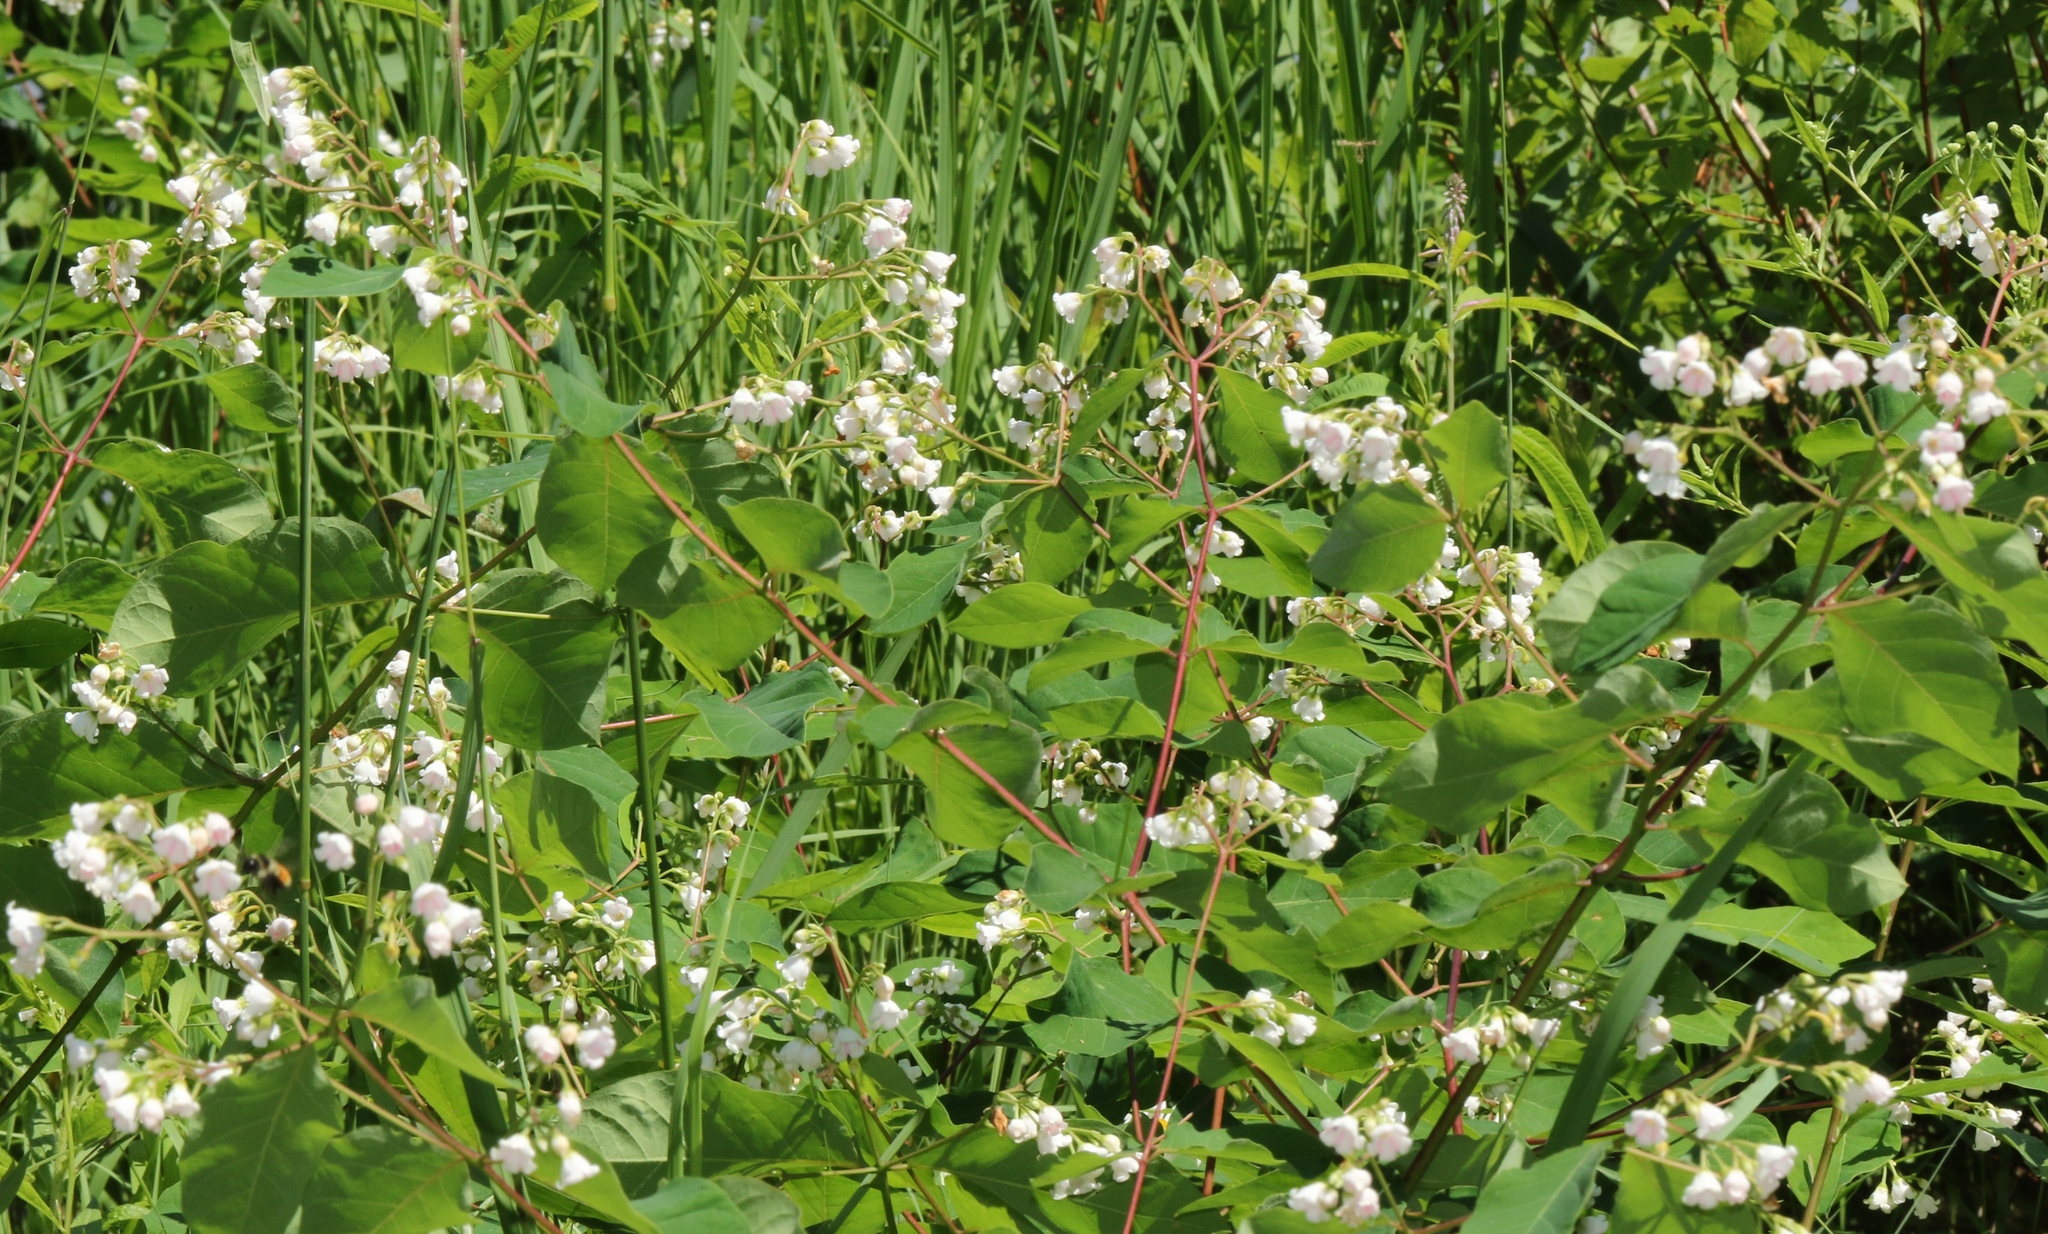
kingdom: Plantae
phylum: Tracheophyta
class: Magnoliopsida
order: Gentianales
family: Apocynaceae
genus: Apocynum
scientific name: Apocynum androsaemifolium
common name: Spreading dogbane
